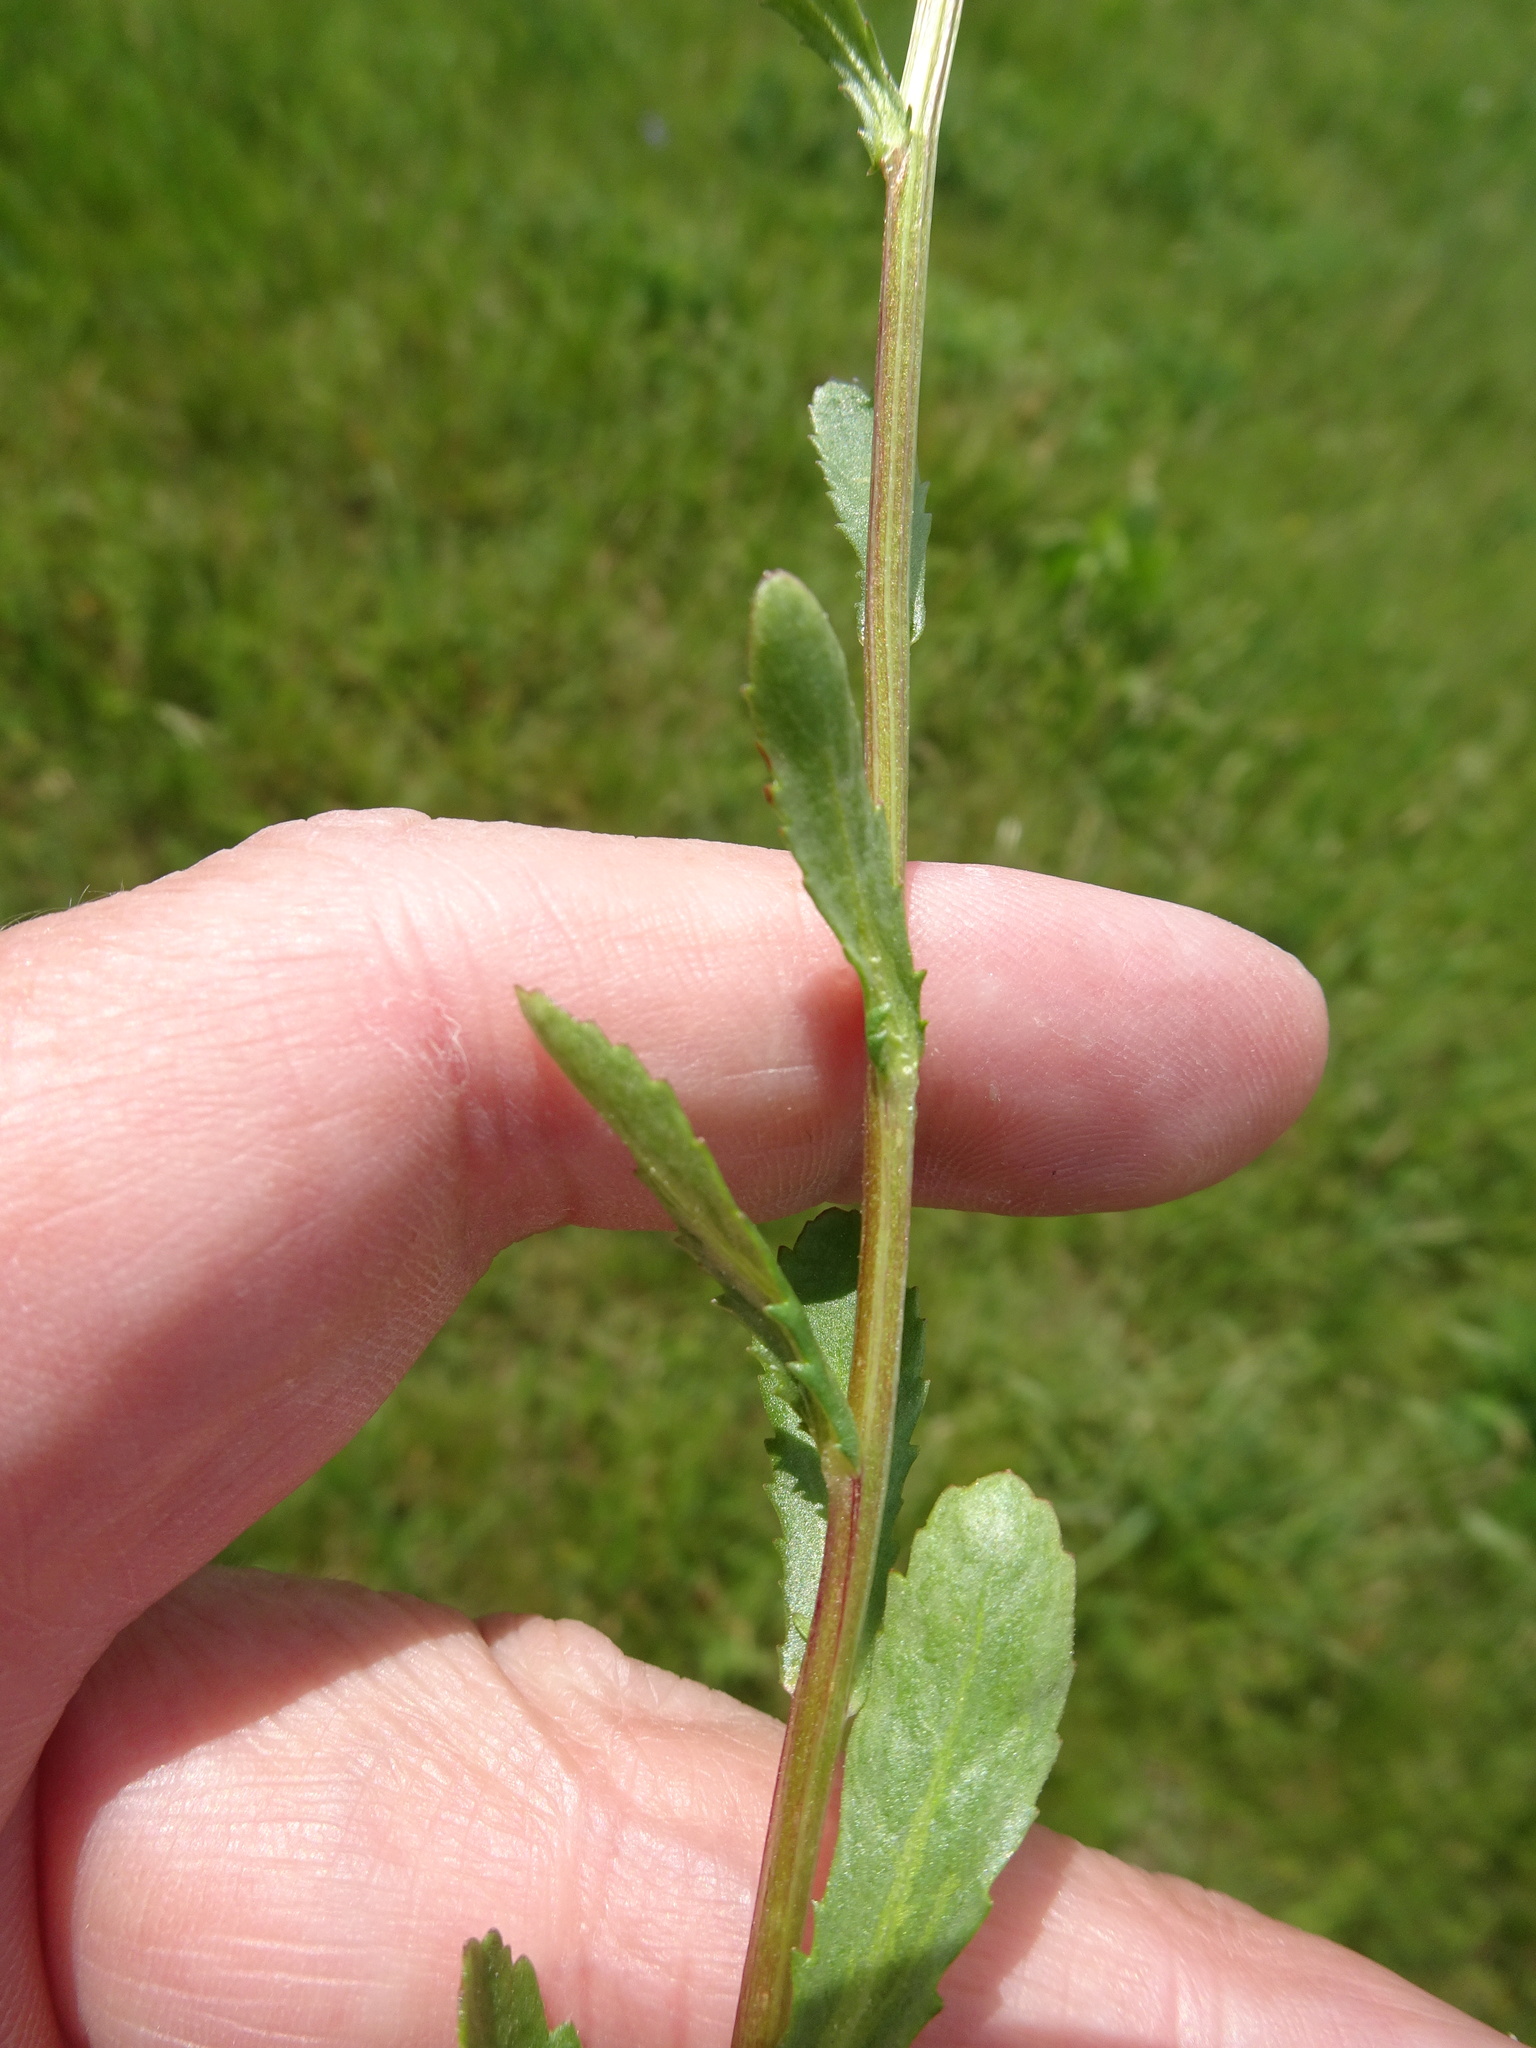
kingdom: Plantae
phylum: Tracheophyta
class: Magnoliopsida
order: Asterales
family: Asteraceae
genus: Leucanthemum
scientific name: Leucanthemum vulgare
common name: Oxeye daisy
